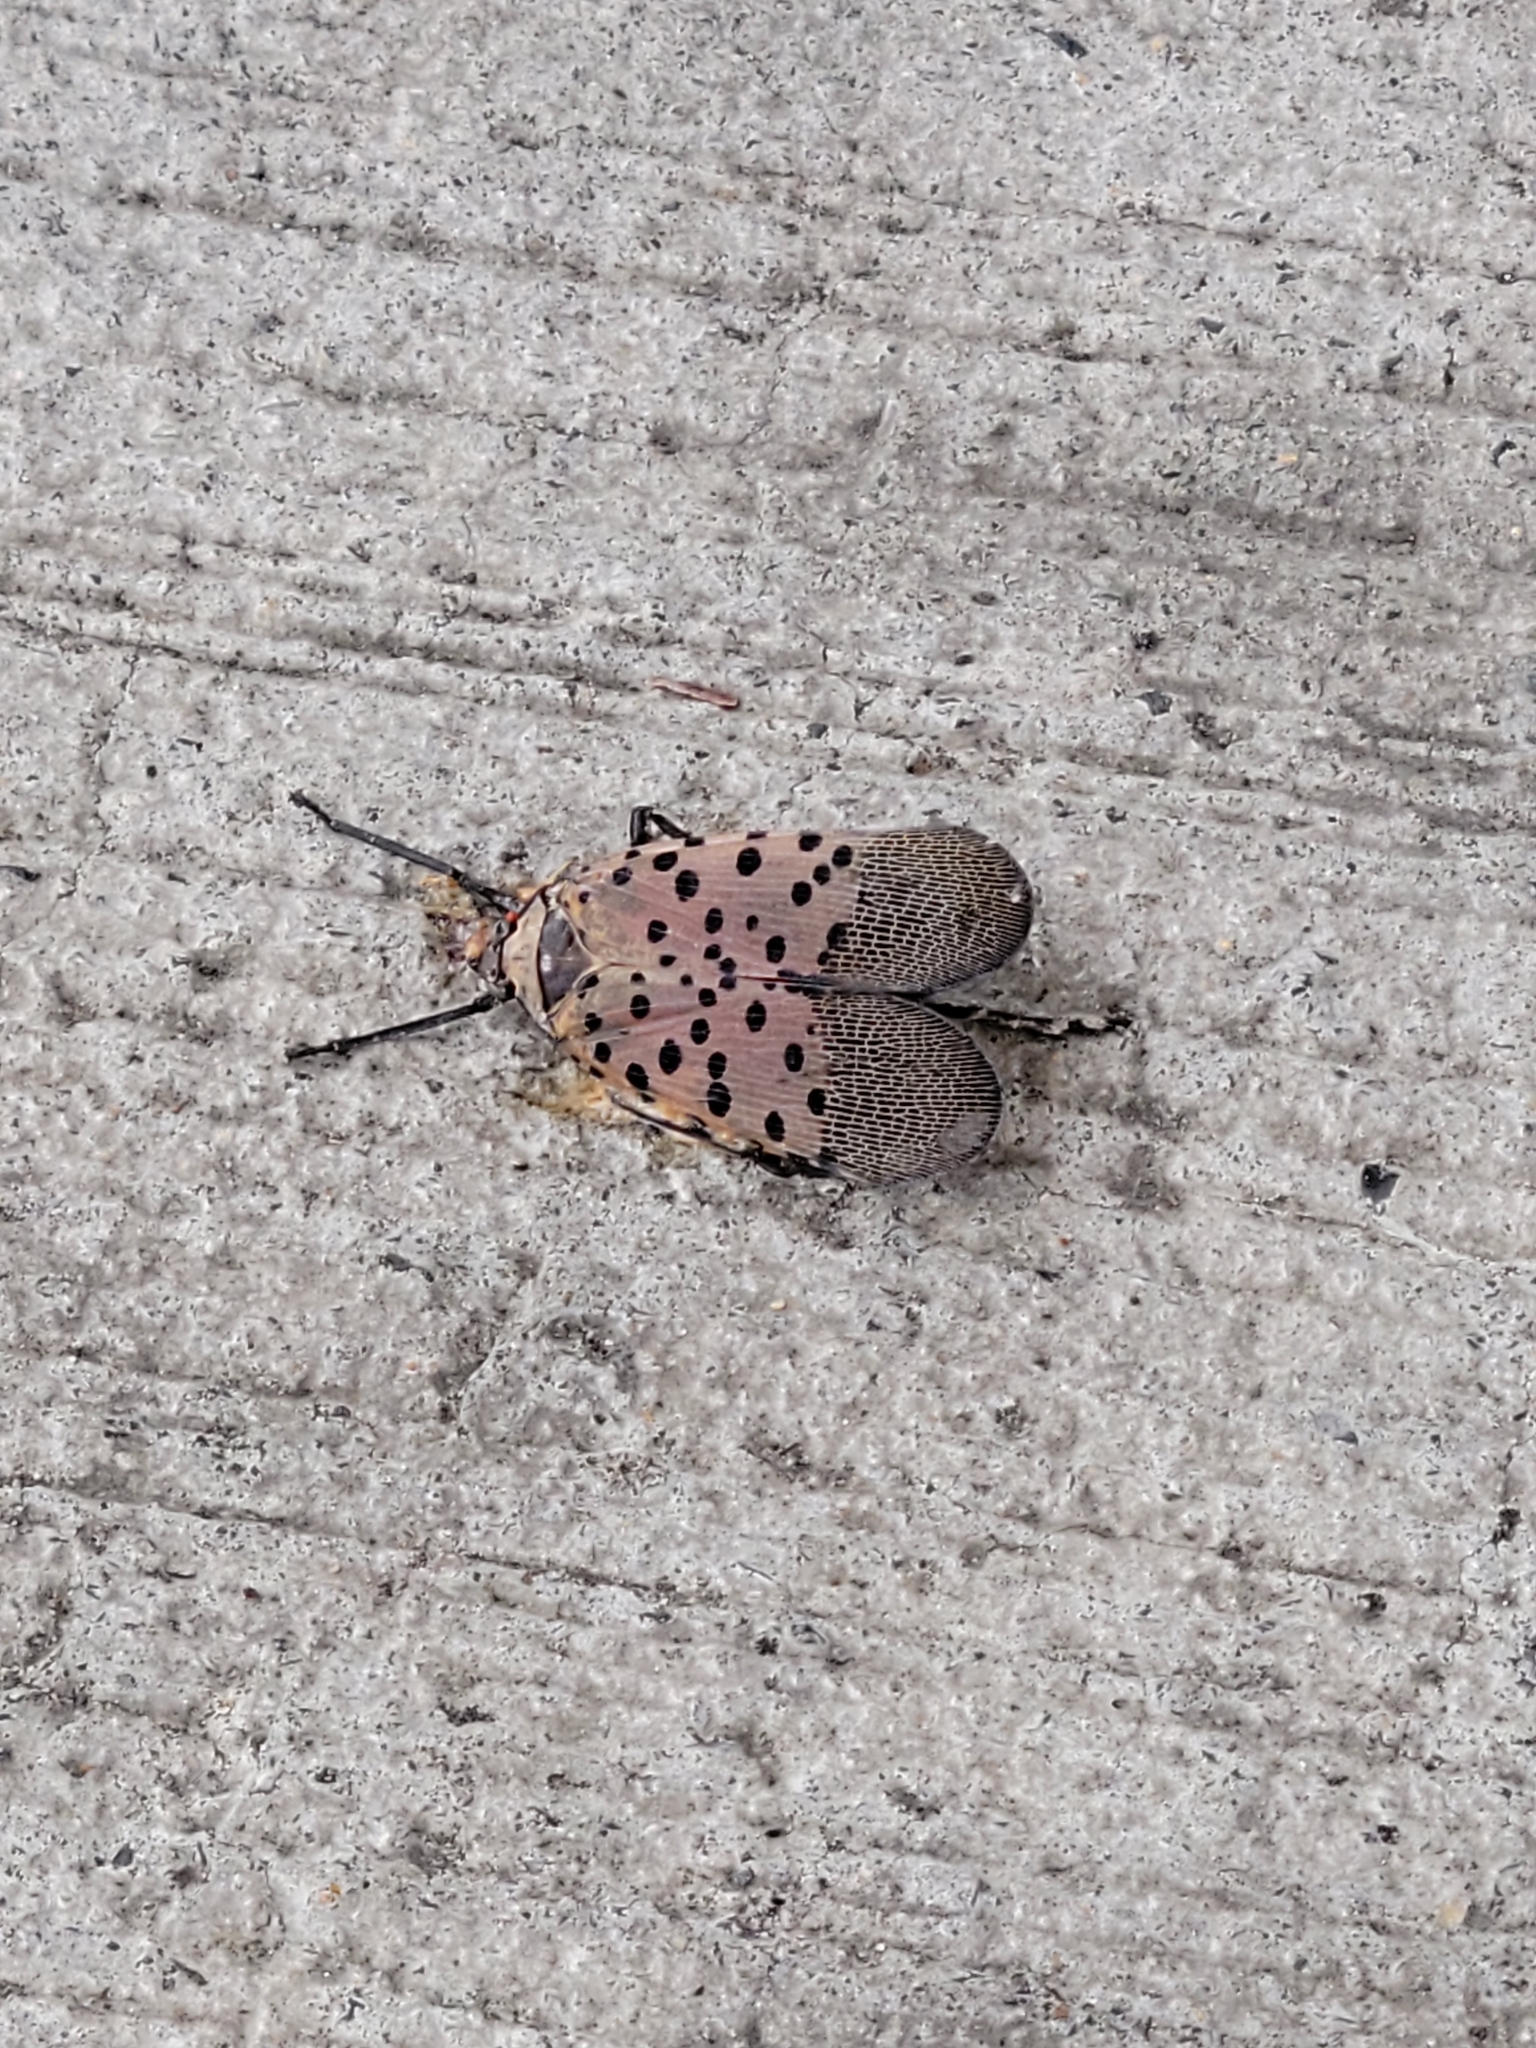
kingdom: Animalia
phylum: Arthropoda
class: Insecta
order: Hemiptera
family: Fulgoridae
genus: Lycorma
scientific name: Lycorma delicatula
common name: Spotted lanternfly
